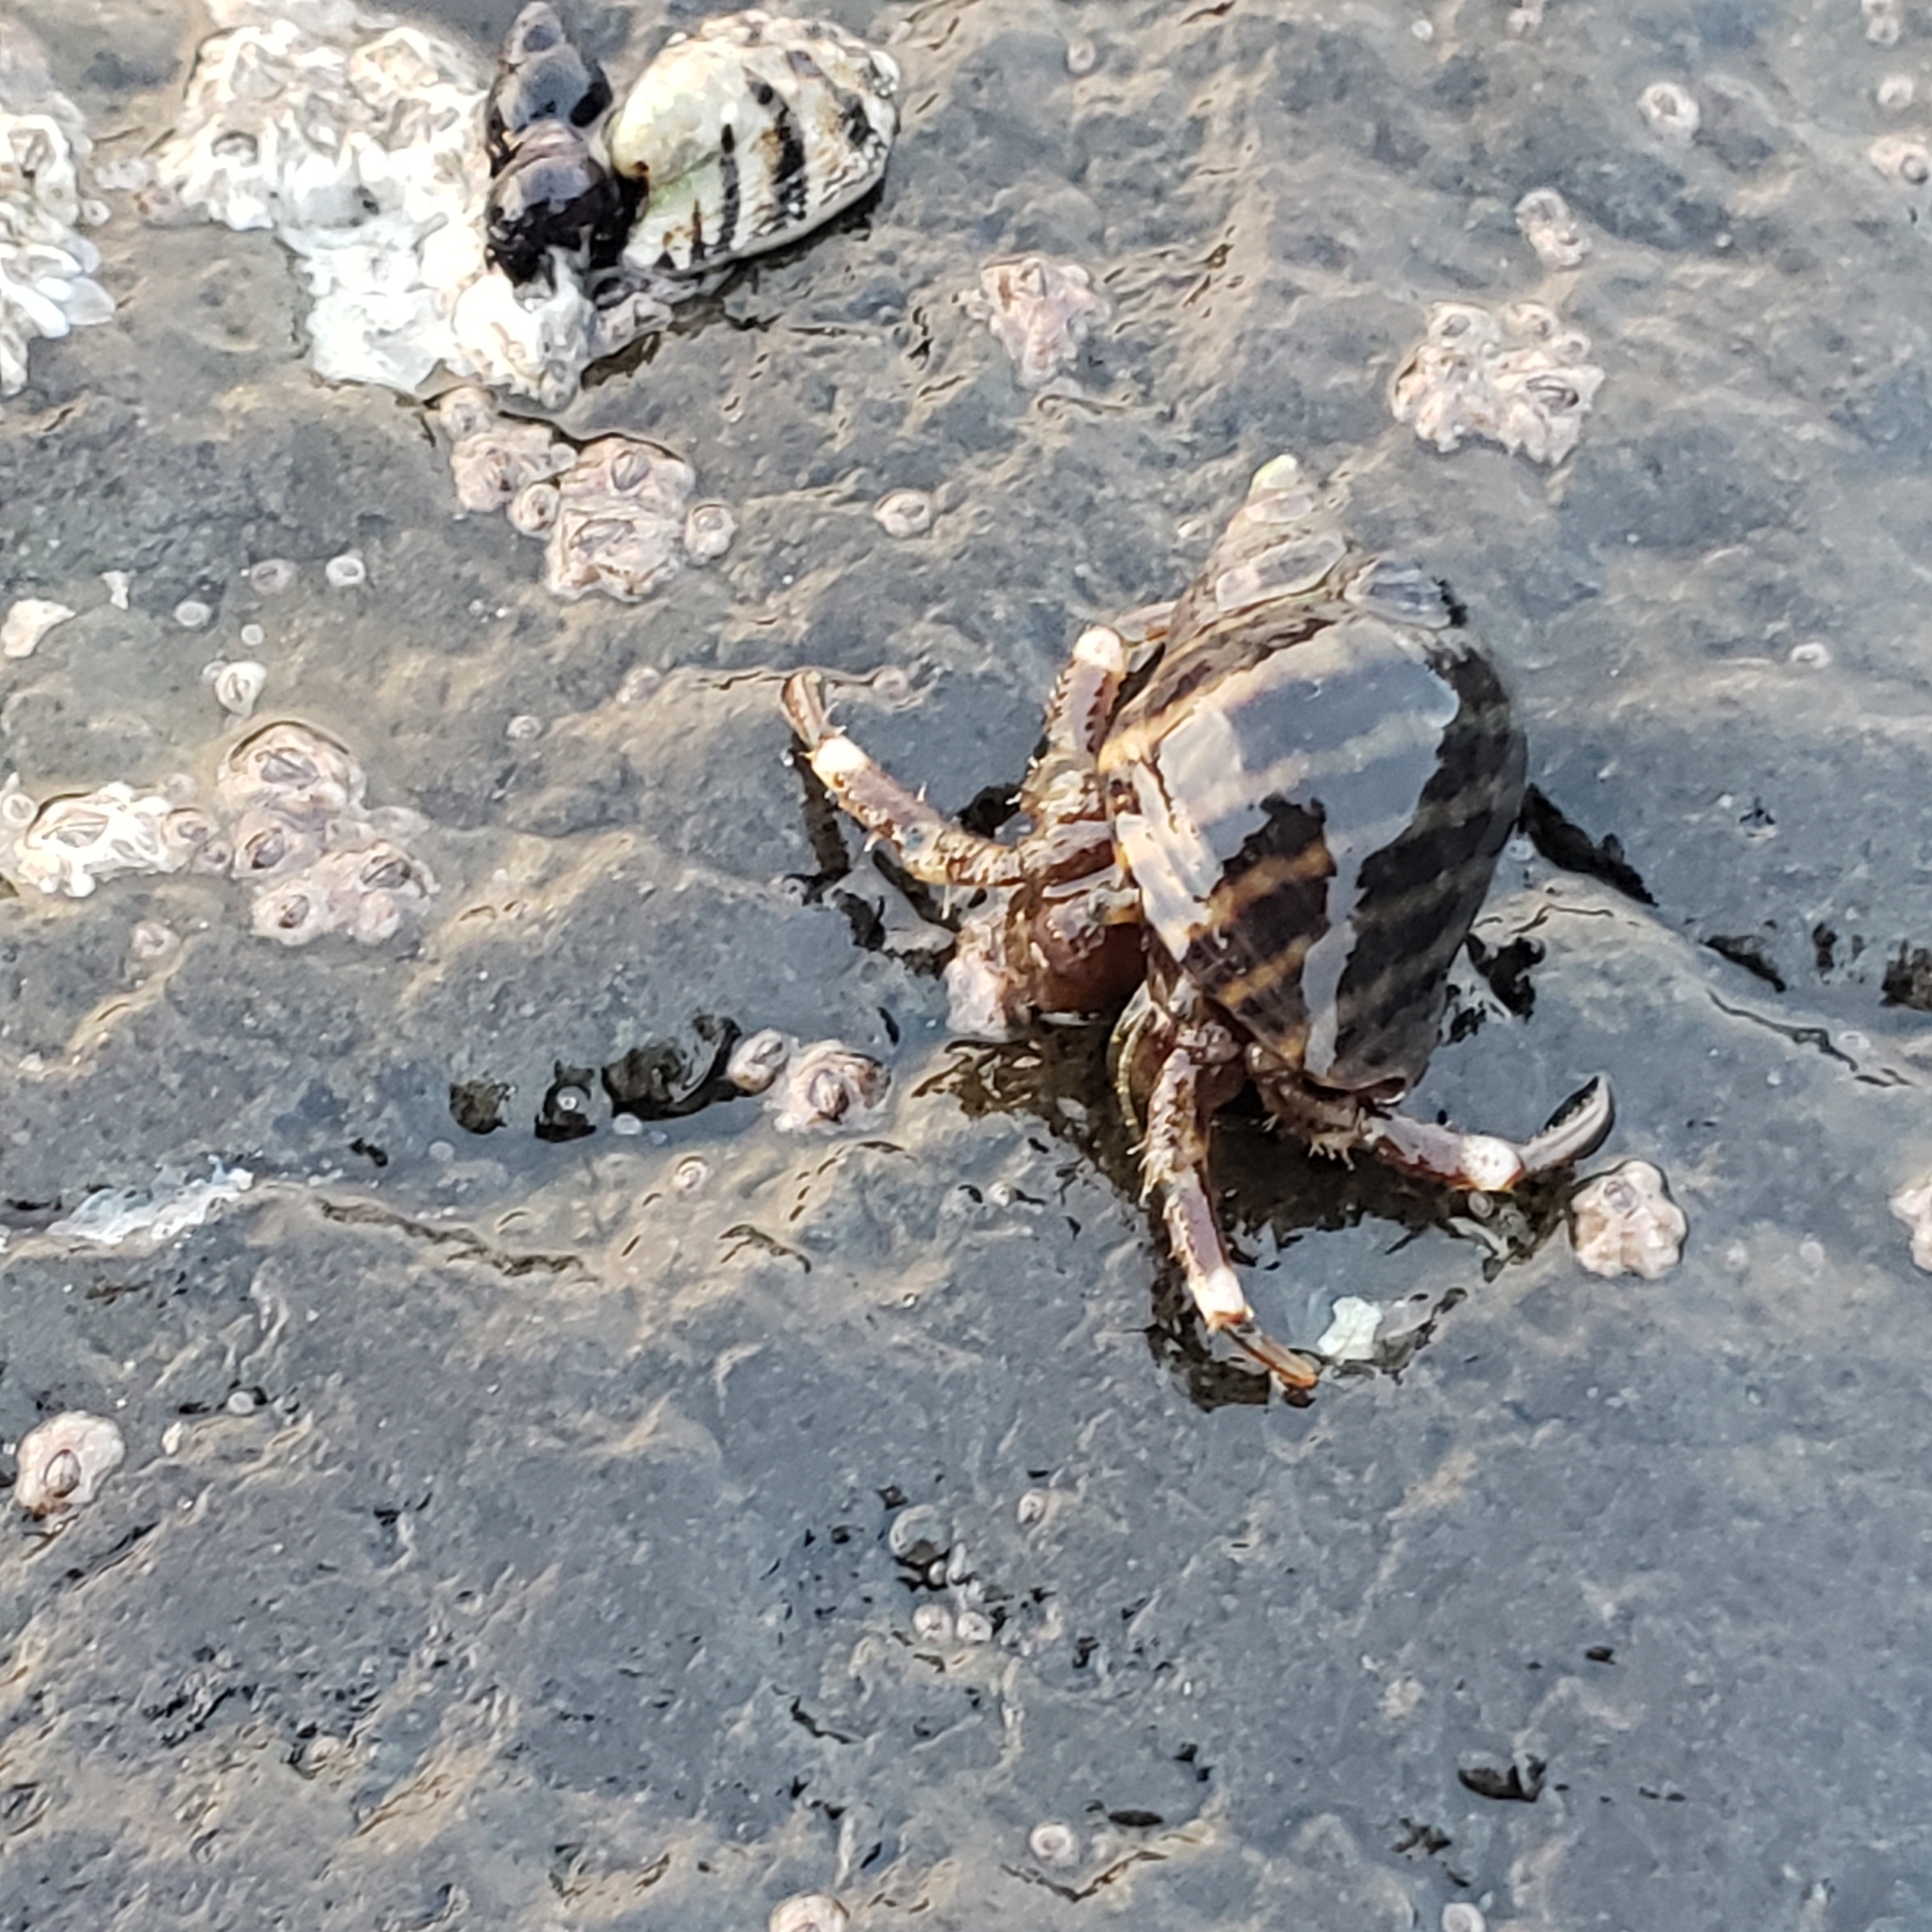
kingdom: Animalia
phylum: Arthropoda
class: Malacostraca
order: Decapoda
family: Paguridae
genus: Pagurus
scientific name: Pagurus hirsutiusculus
